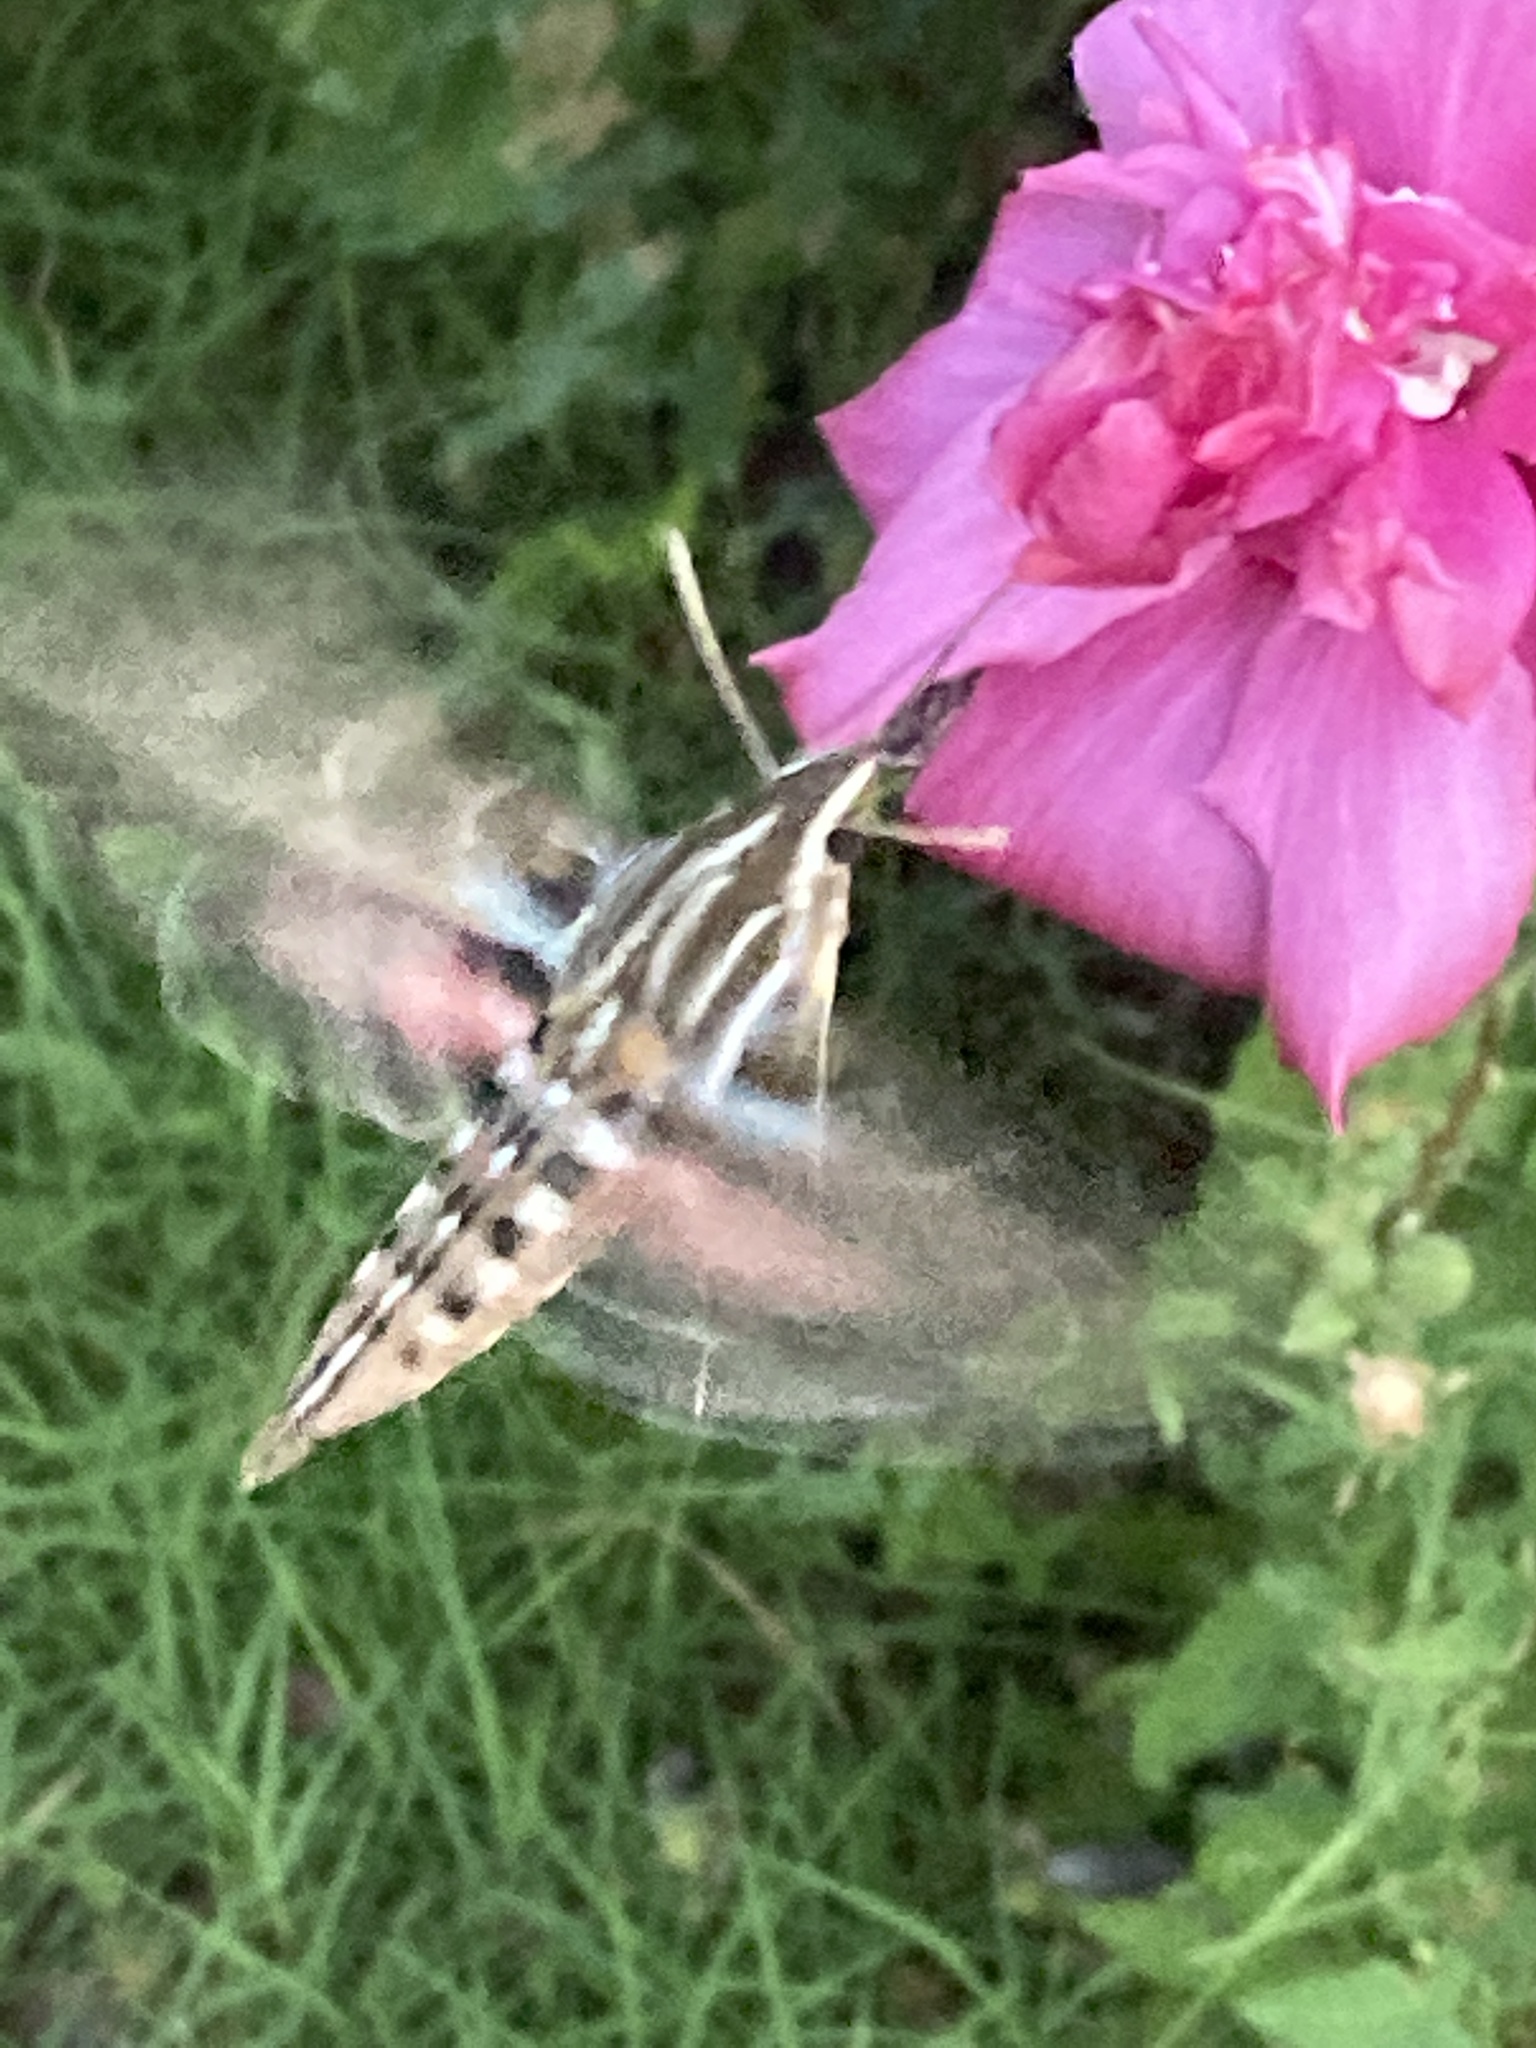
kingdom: Animalia
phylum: Arthropoda
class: Insecta
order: Lepidoptera
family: Sphingidae
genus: Hyles
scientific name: Hyles lineata
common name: White-lined sphinx
